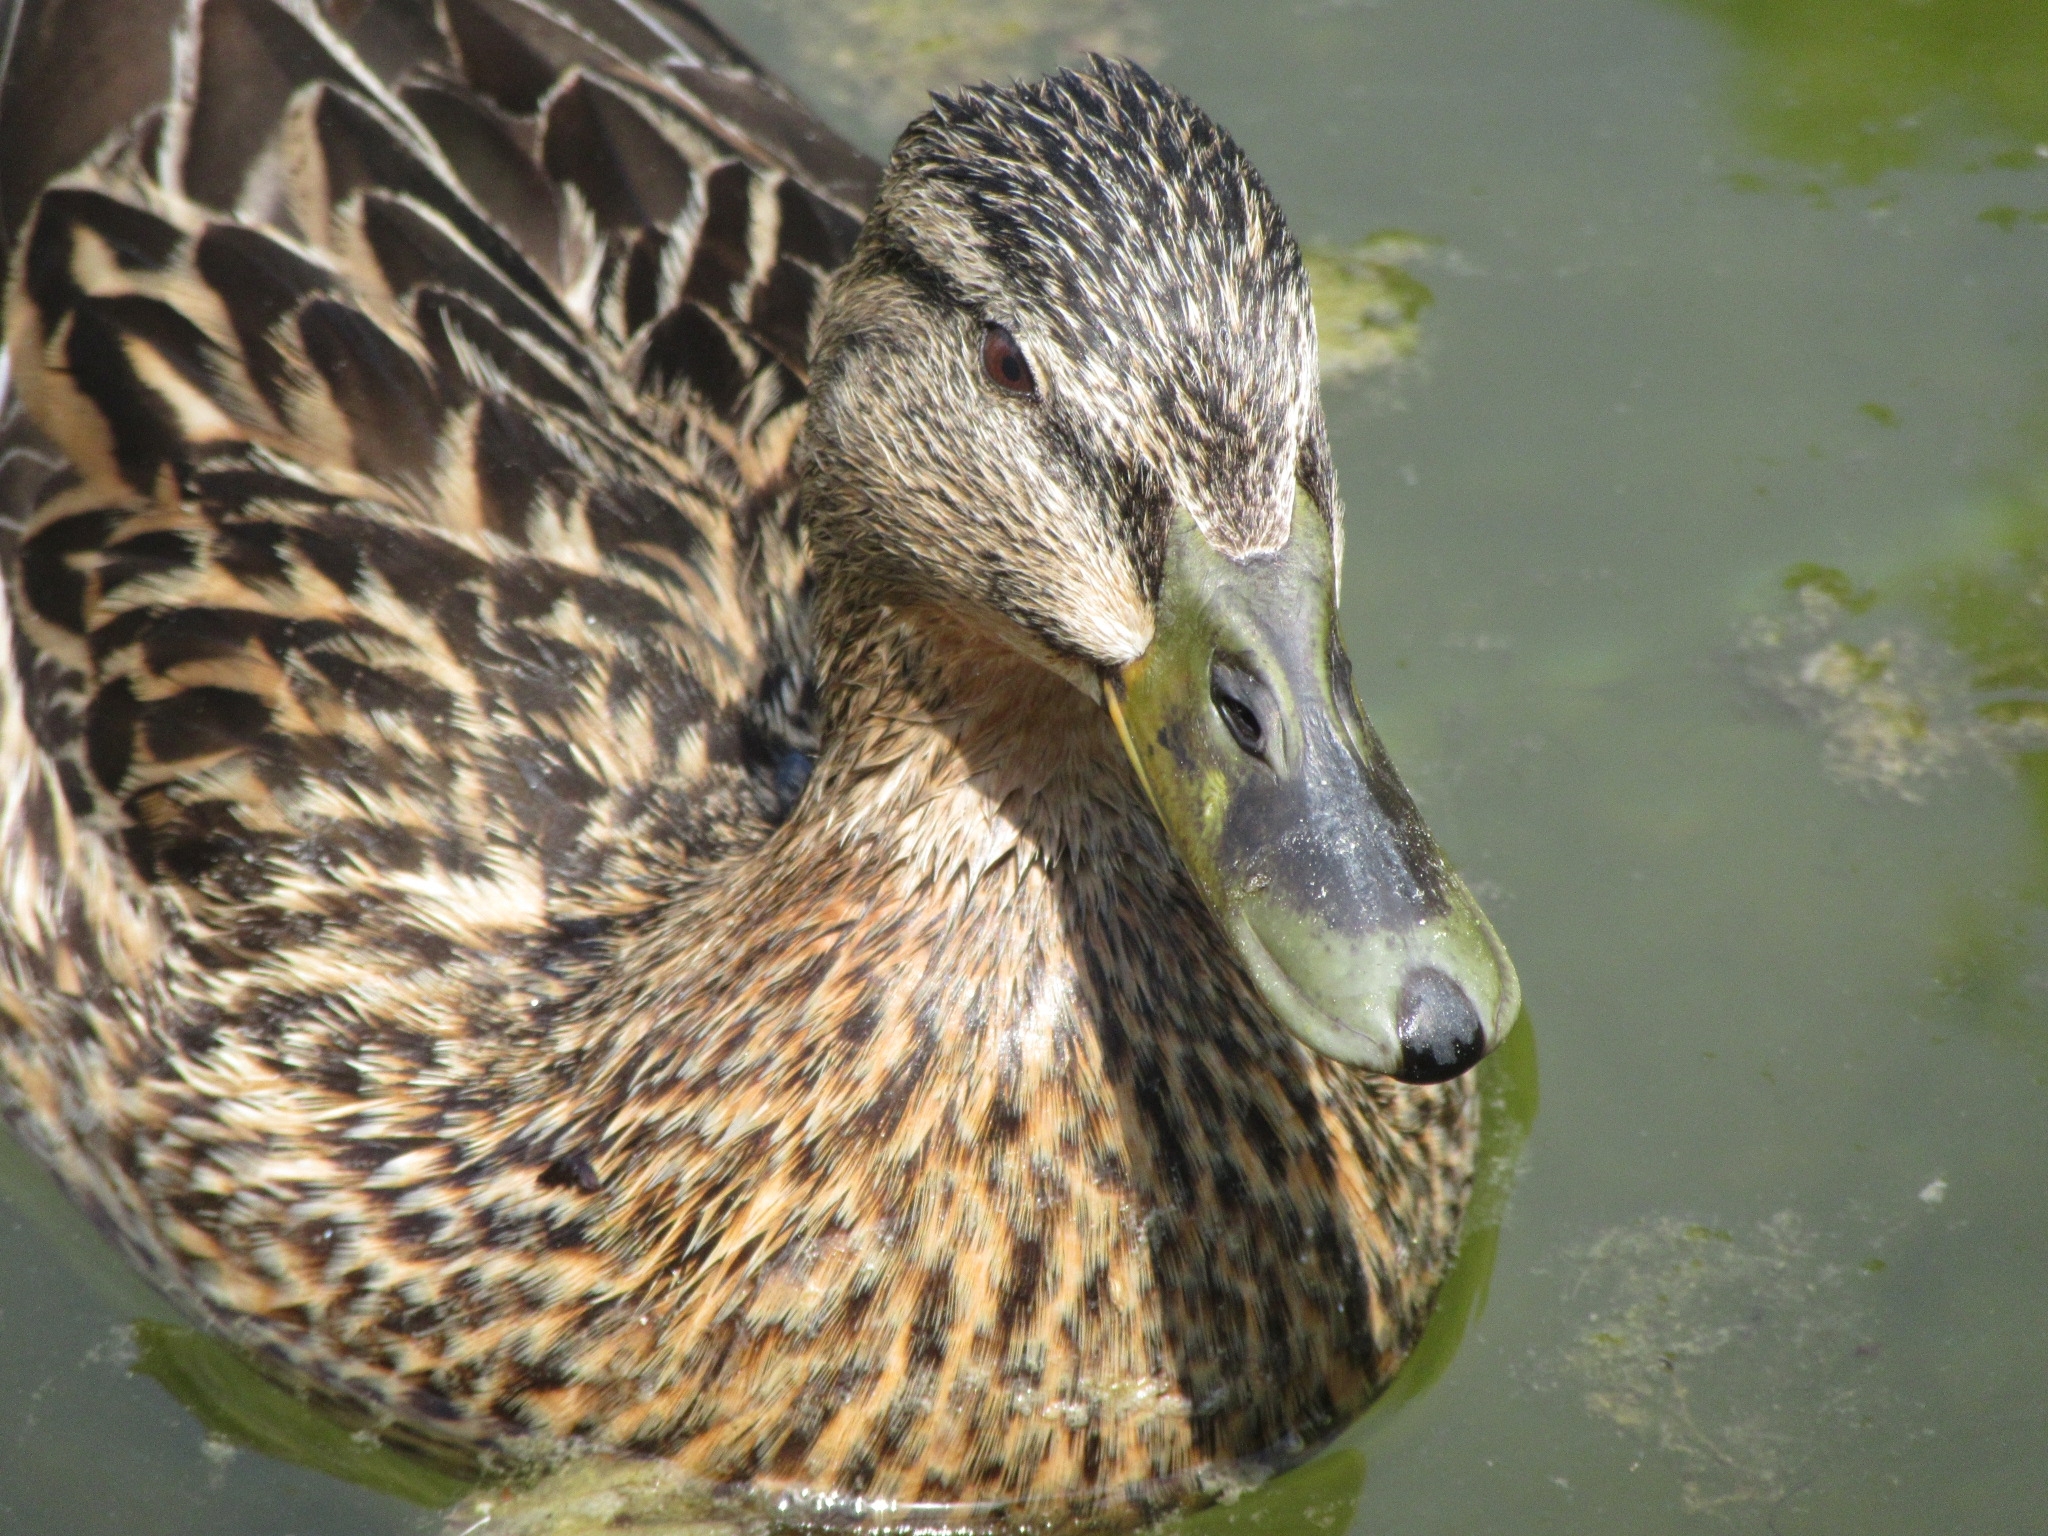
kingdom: Animalia
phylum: Chordata
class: Aves
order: Anseriformes
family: Anatidae
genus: Anas
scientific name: Anas platyrhynchos
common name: Mallard
